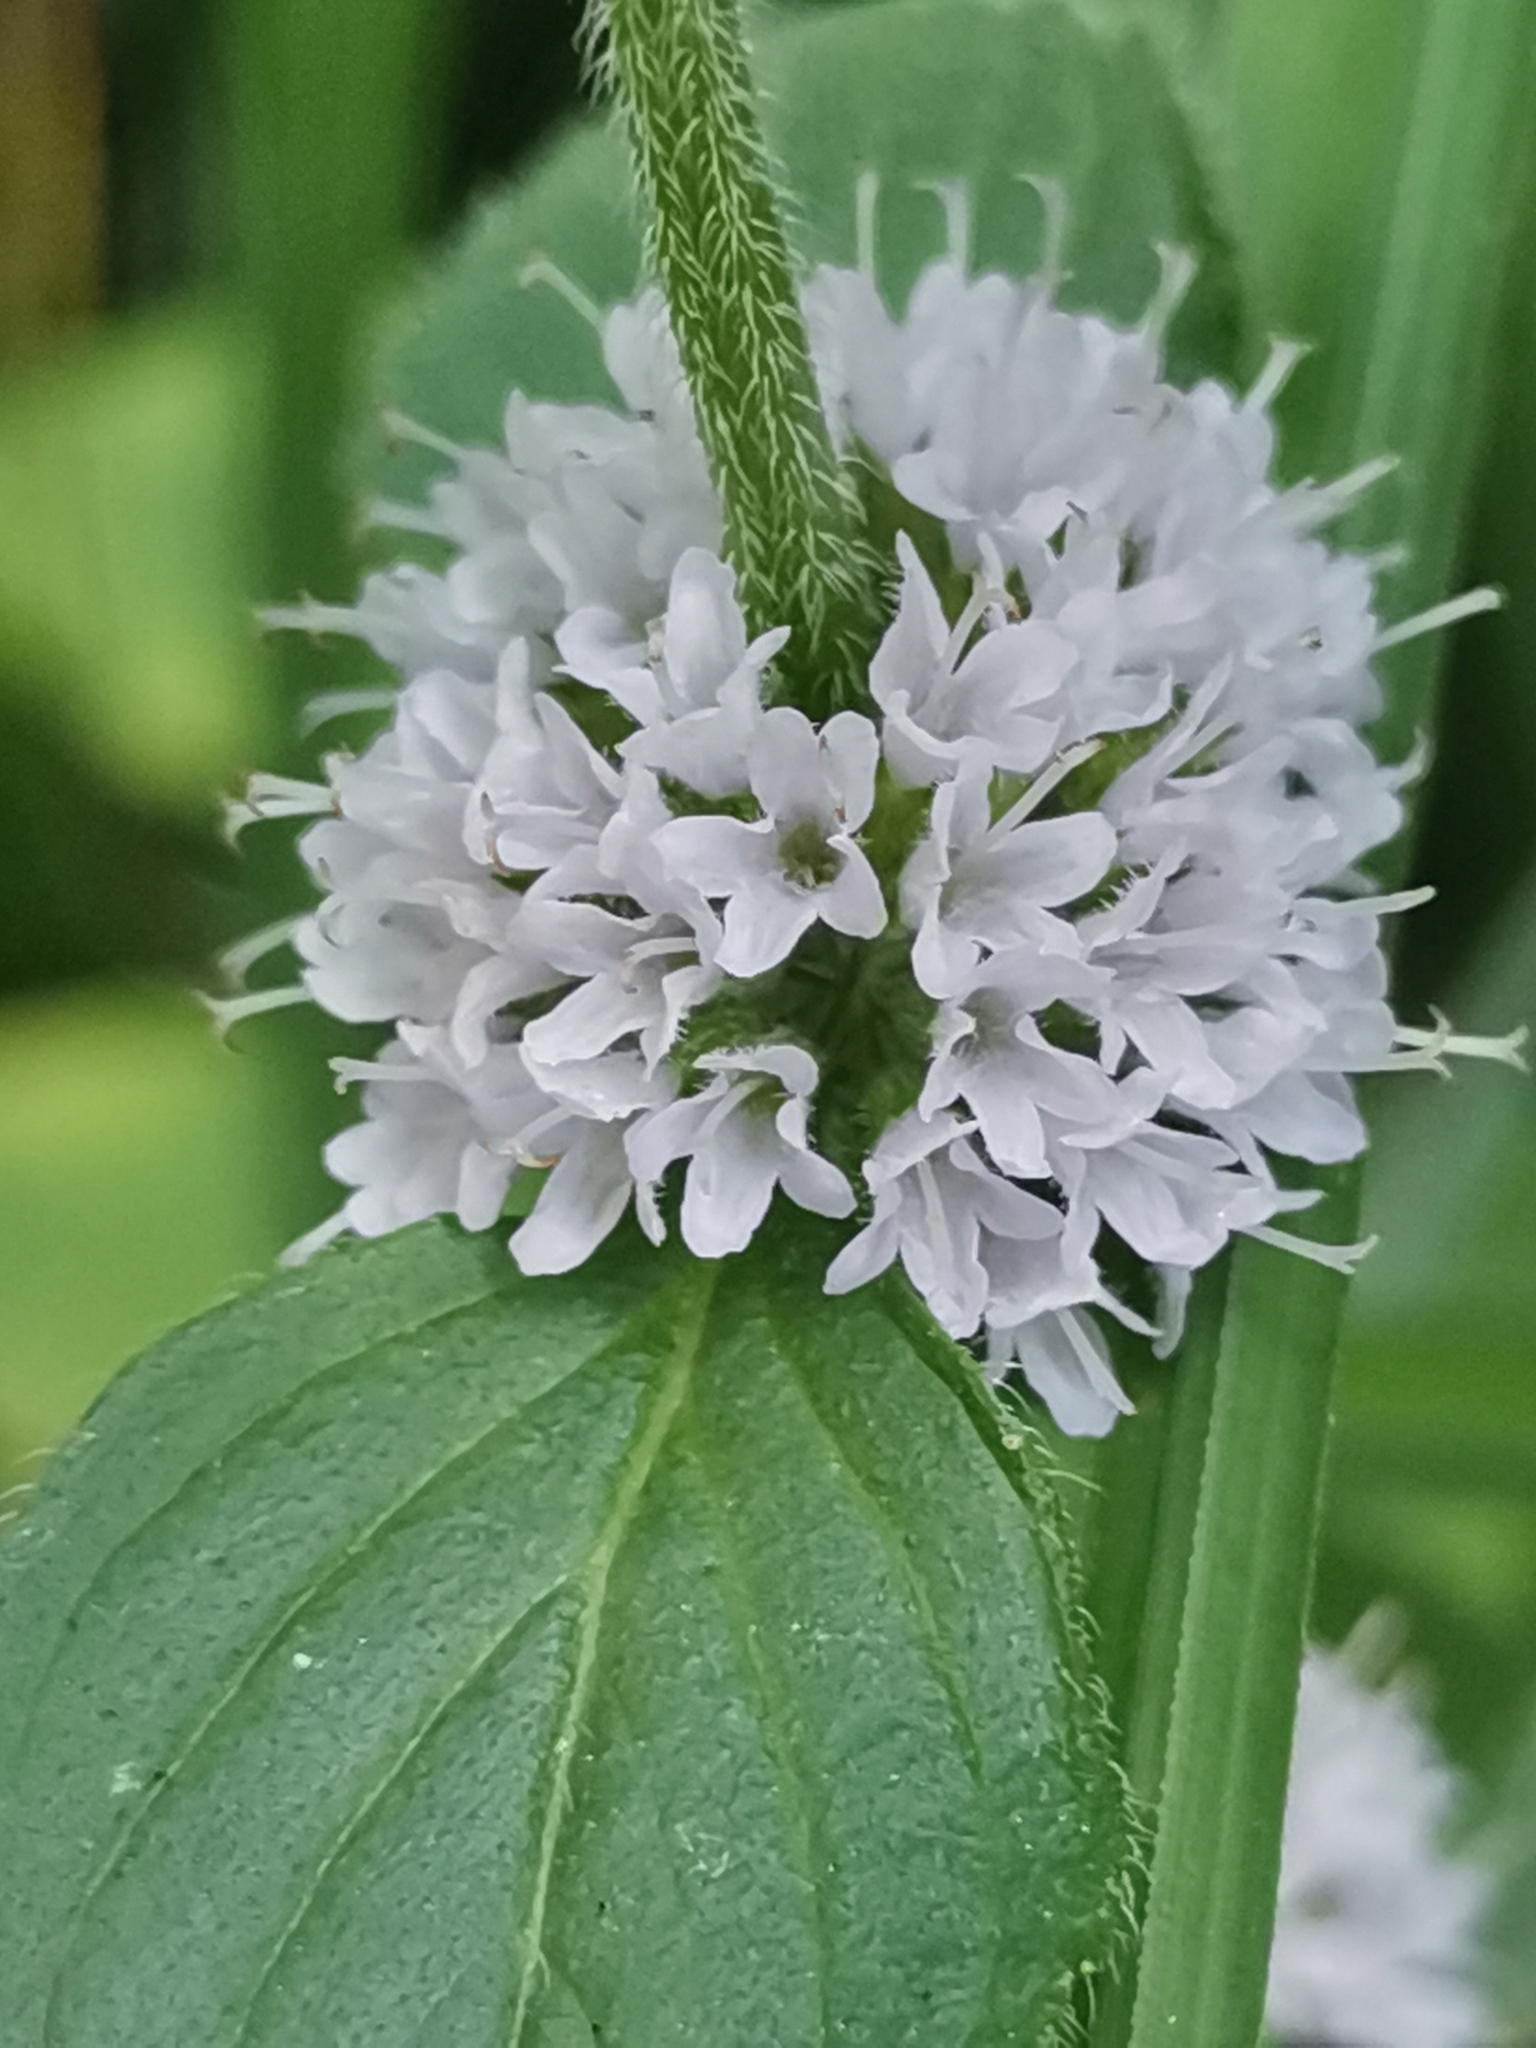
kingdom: Plantae
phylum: Tracheophyta
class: Magnoliopsida
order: Lamiales
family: Lamiaceae
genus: Mentha
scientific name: Mentha verticillata
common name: Mint
